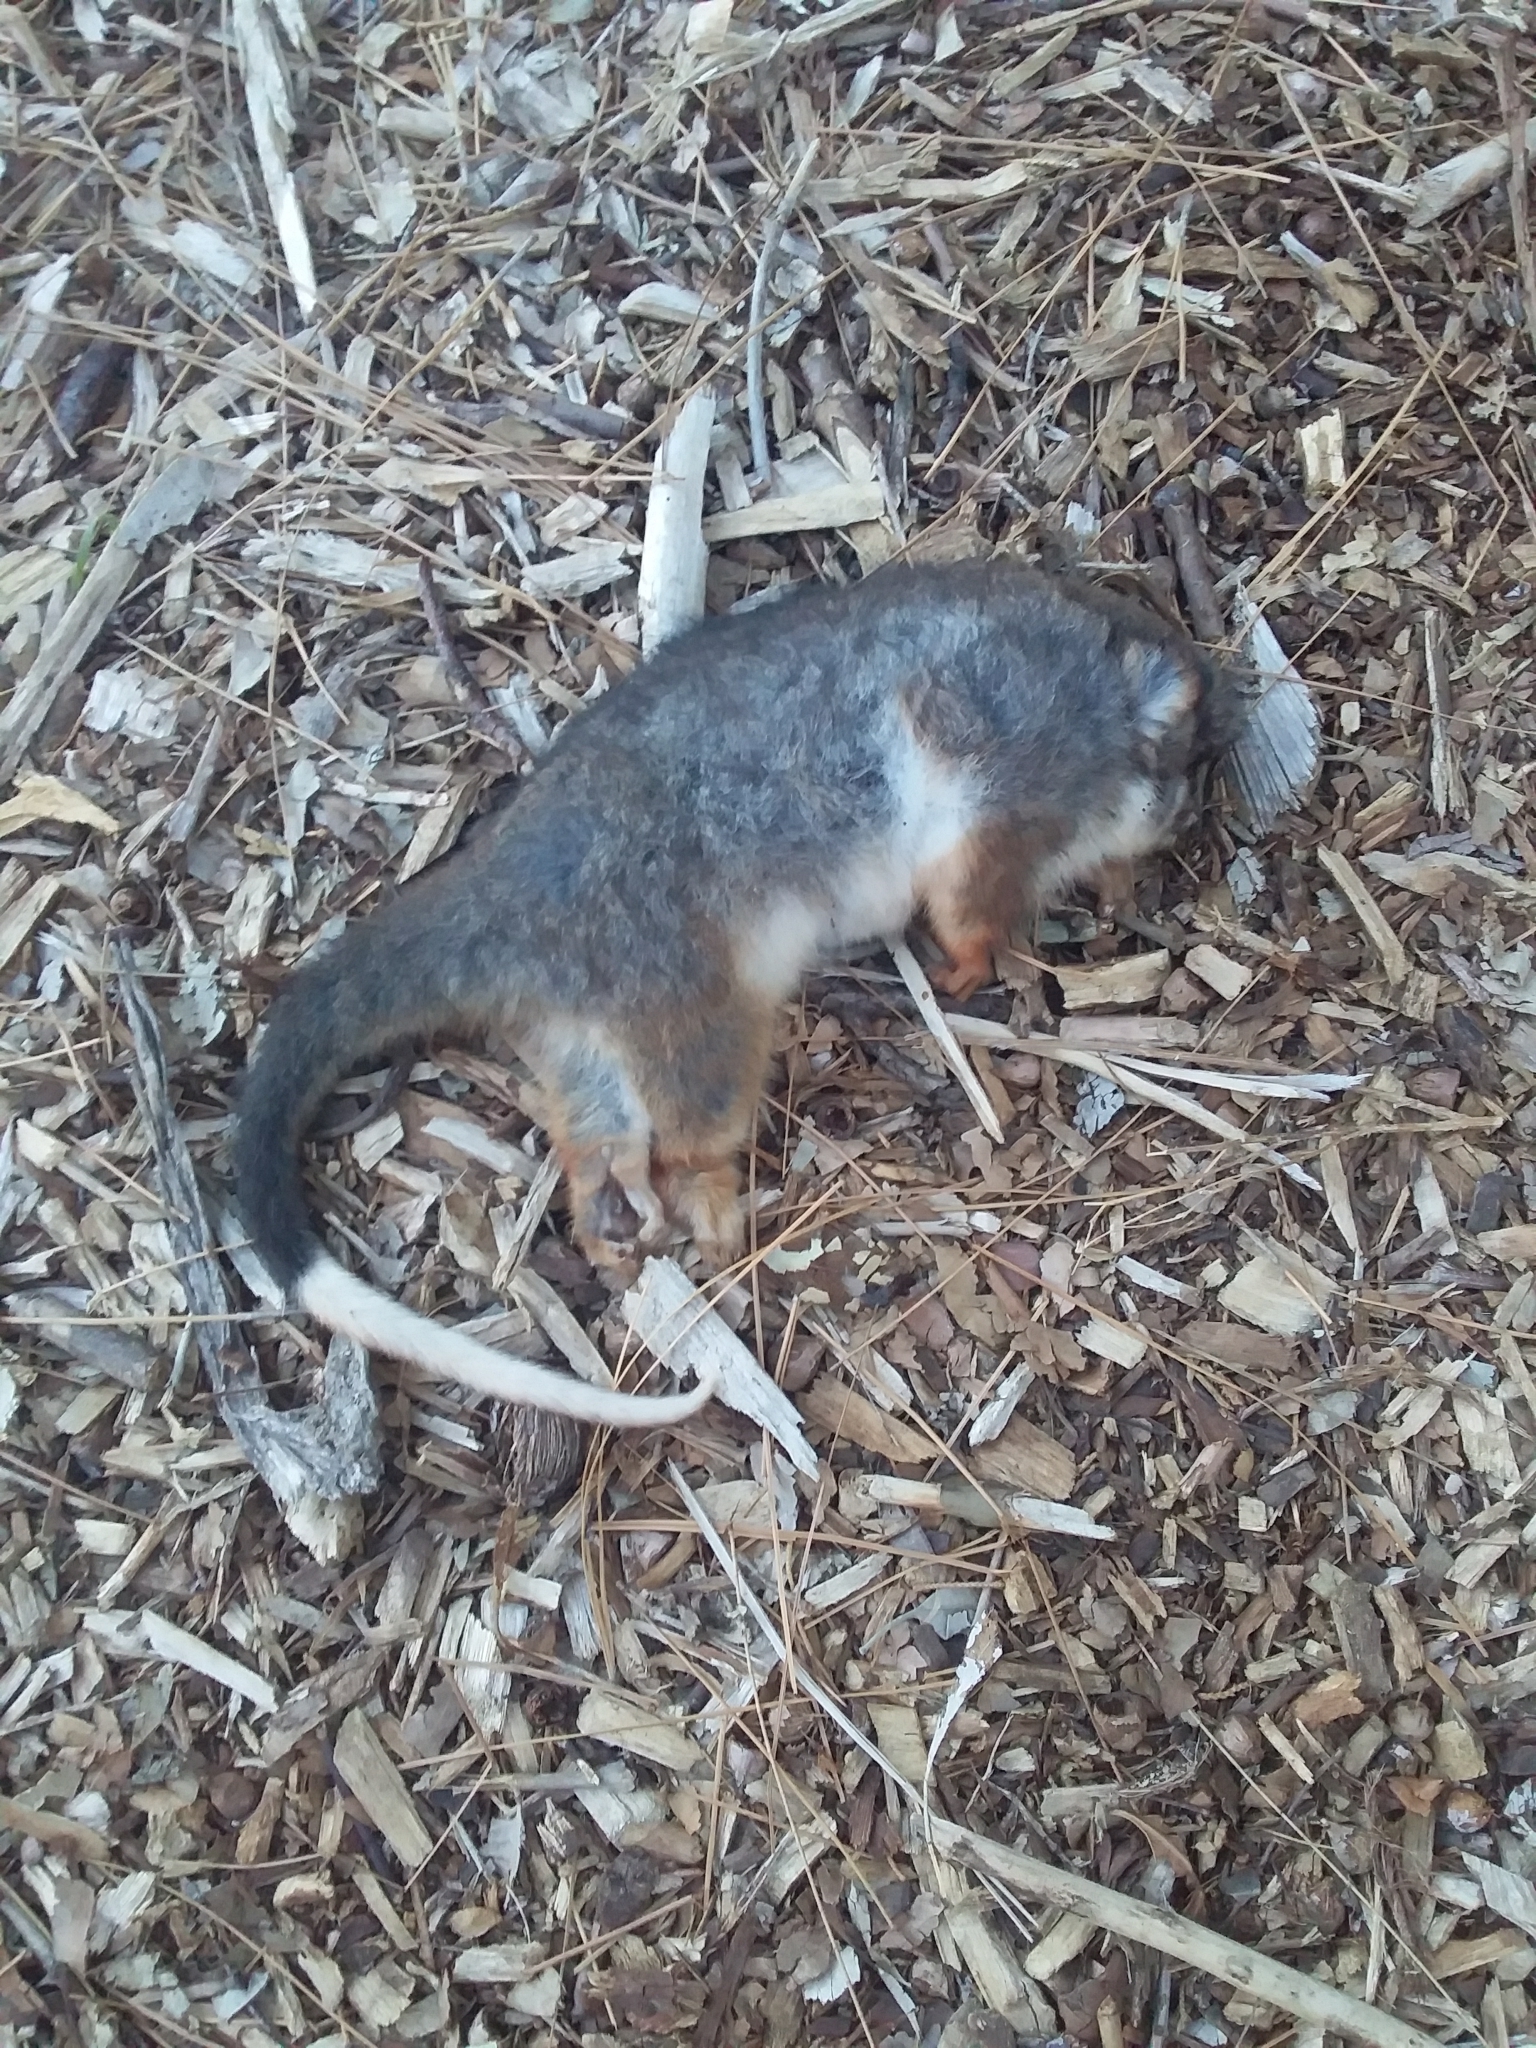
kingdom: Animalia
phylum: Chordata
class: Mammalia
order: Diprotodontia
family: Pseudocheiridae
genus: Pseudocheirus
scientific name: Pseudocheirus peregrinus
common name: Common ringtail possum
